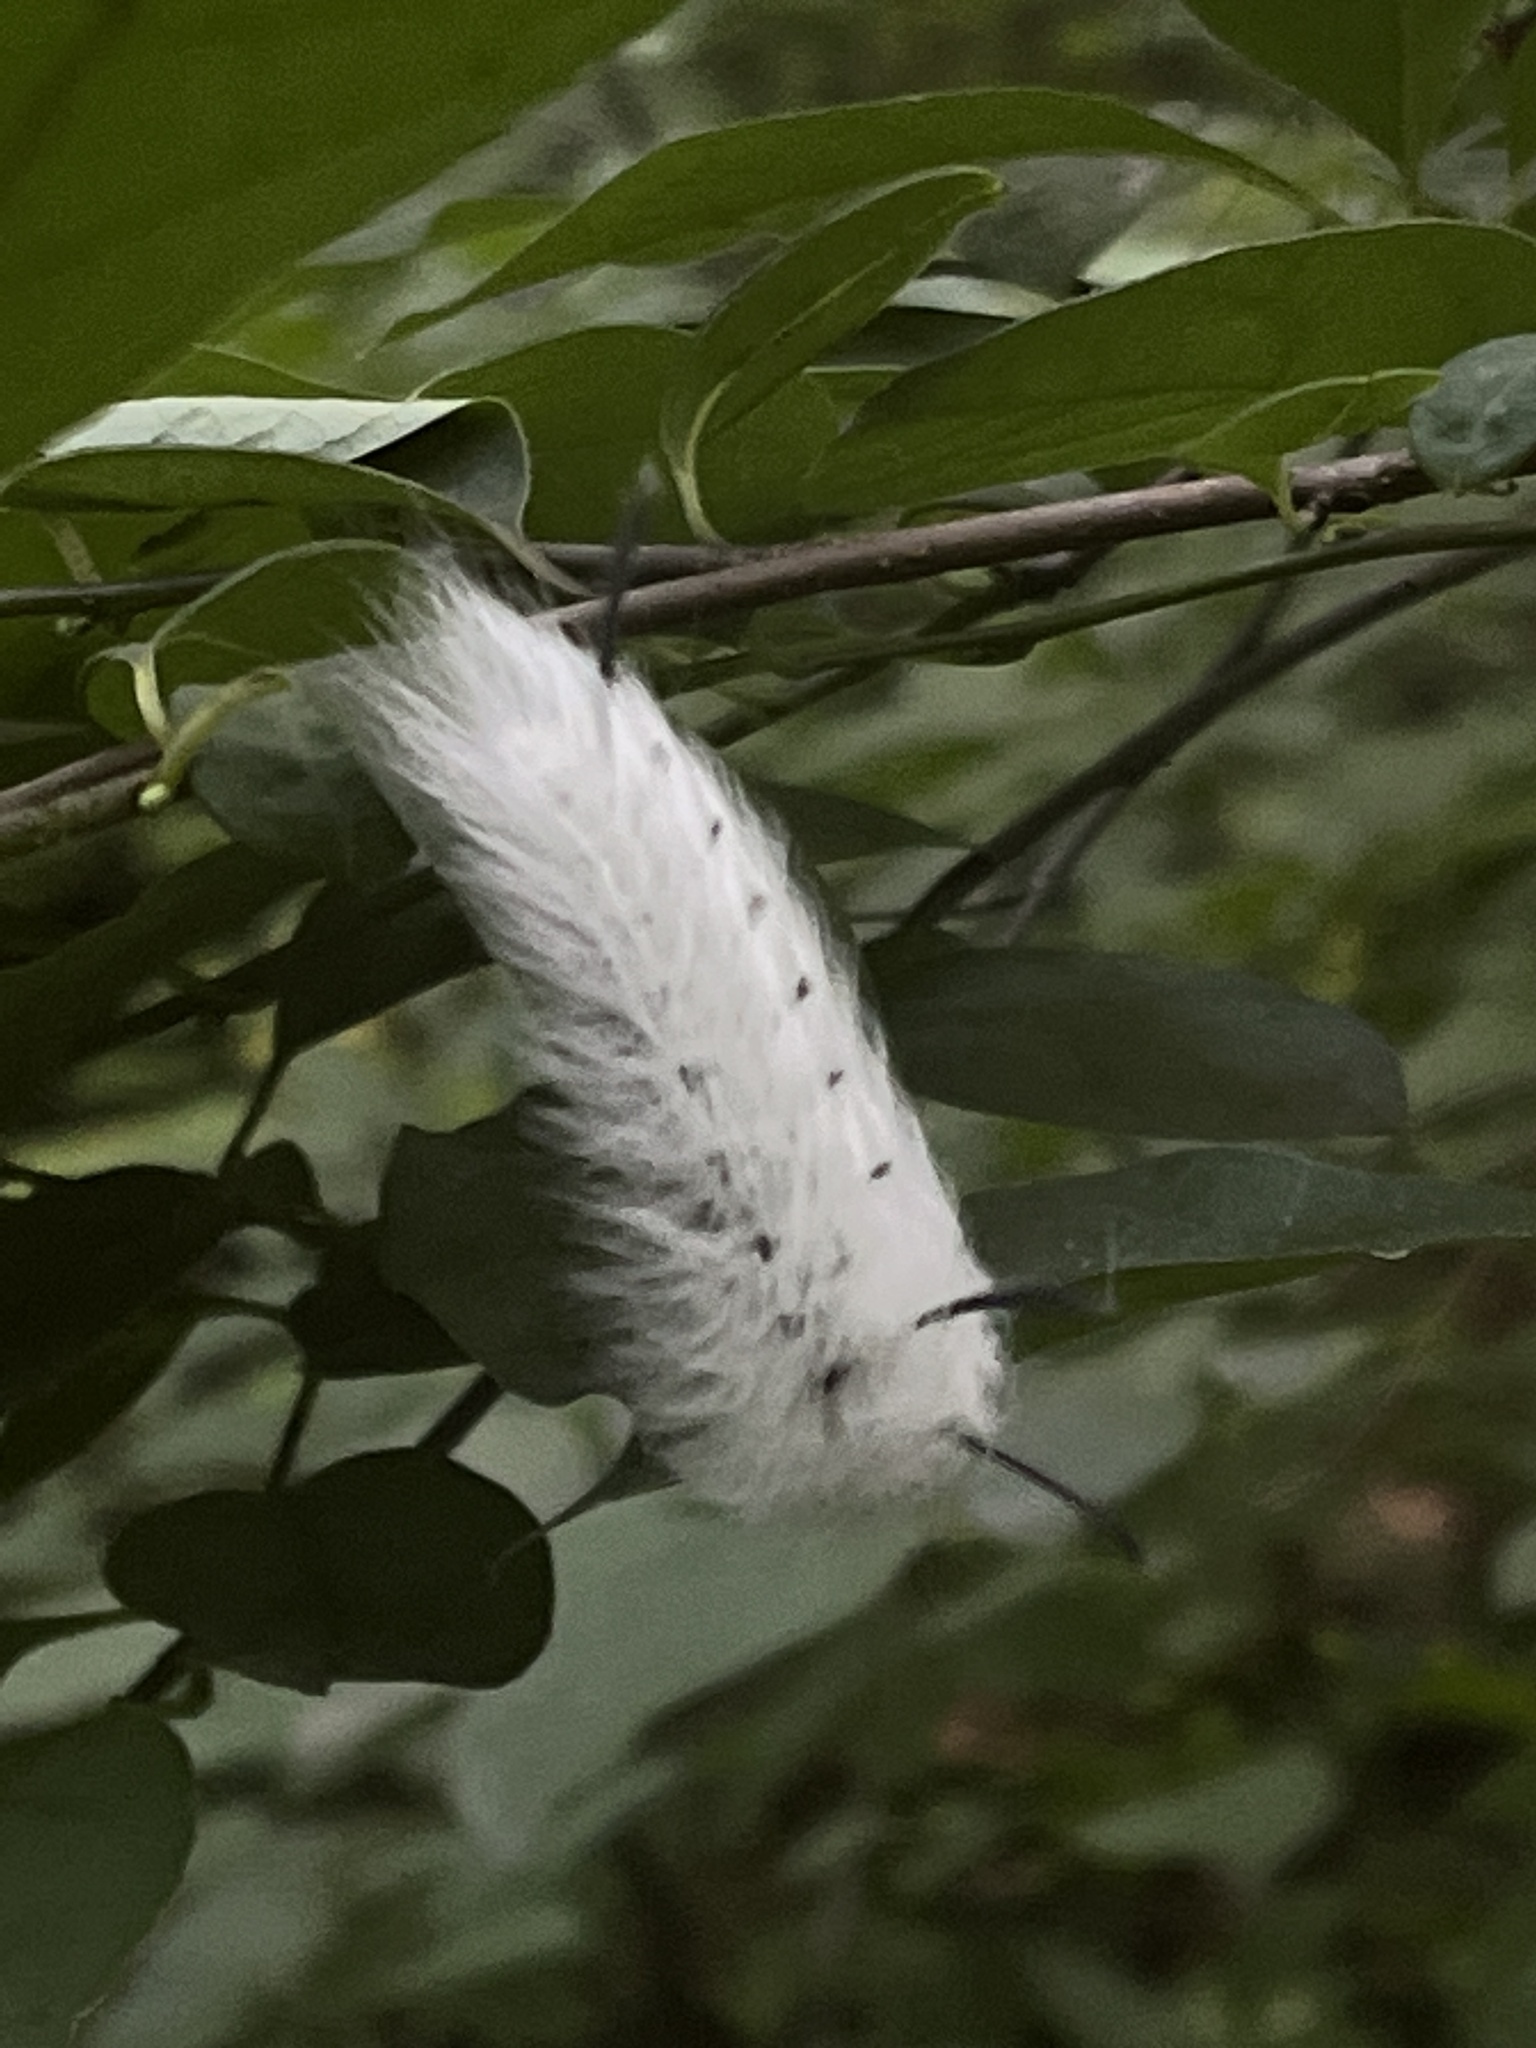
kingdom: Animalia
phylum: Arthropoda
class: Insecta
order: Lepidoptera
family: Apatelodidae
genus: Hygrochroa
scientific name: Hygrochroa Apatelodes torrefacta
